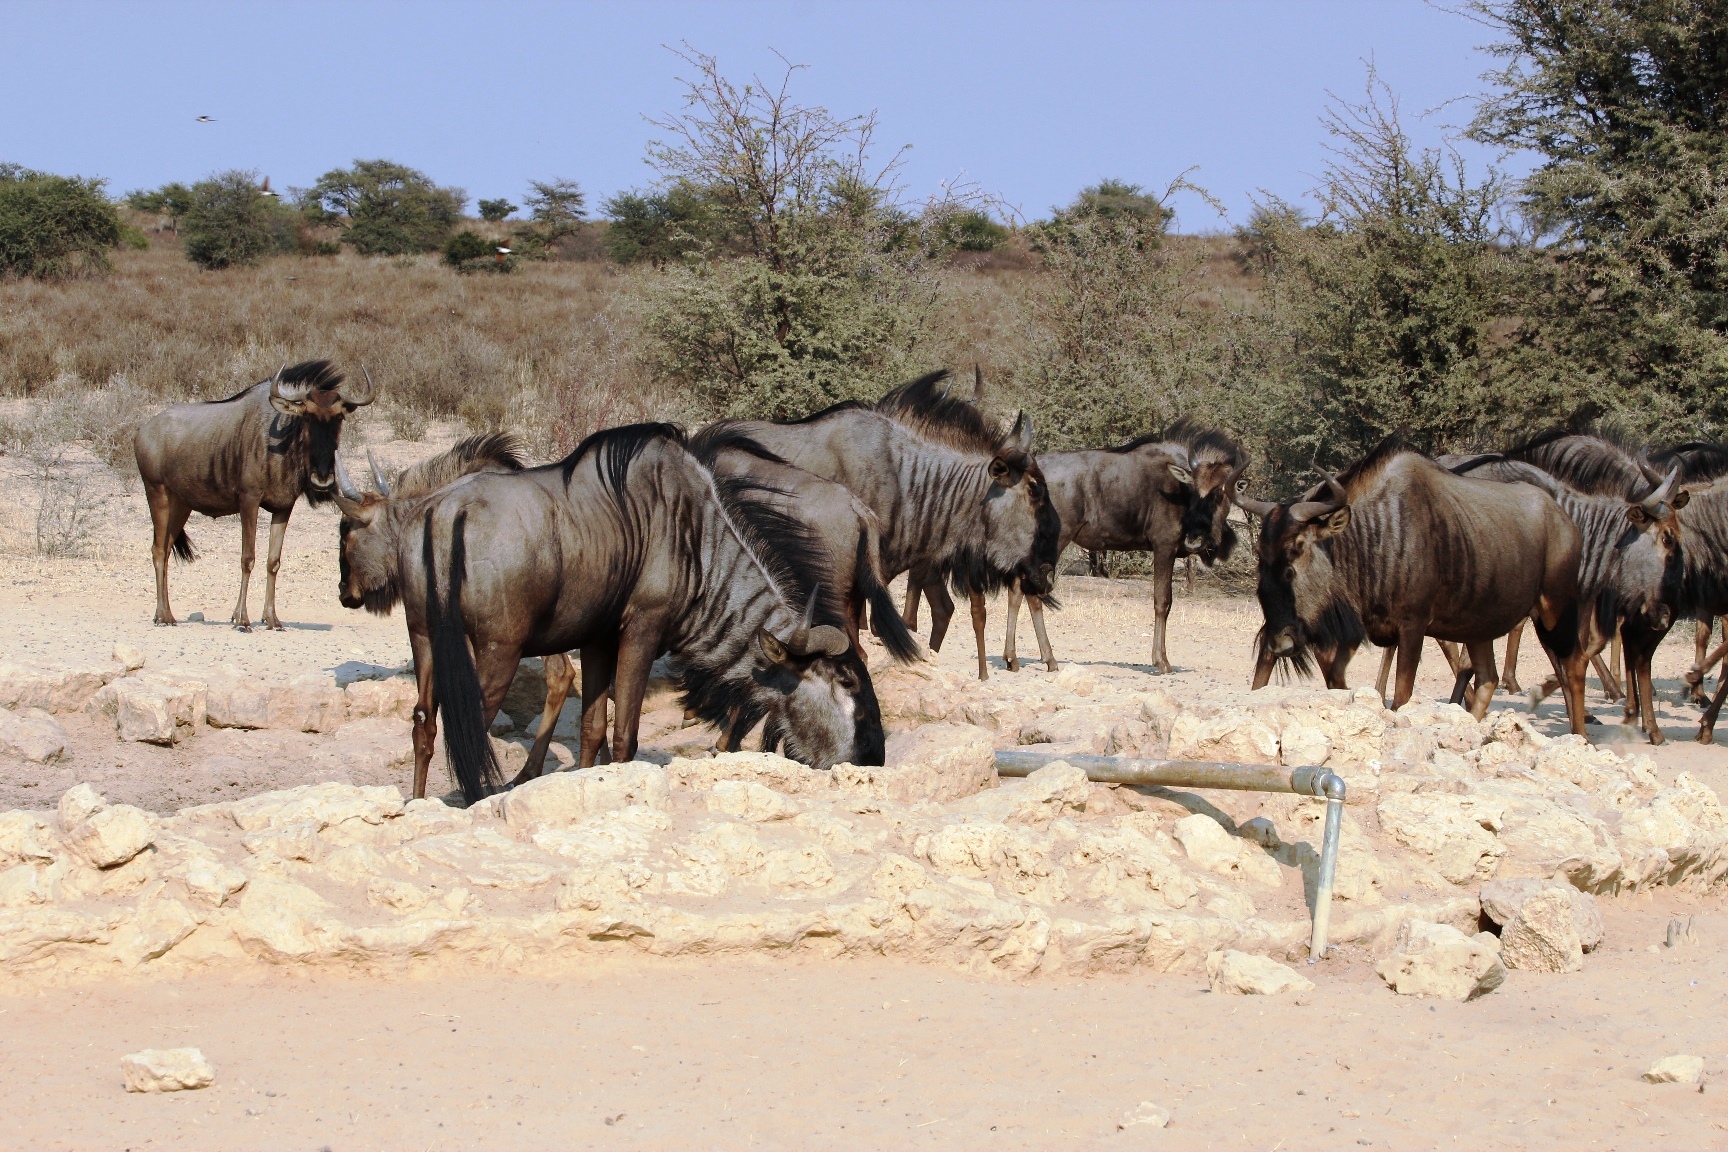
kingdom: Animalia
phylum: Chordata
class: Mammalia
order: Artiodactyla
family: Bovidae
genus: Connochaetes
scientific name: Connochaetes taurinus
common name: Blue wildebeest
